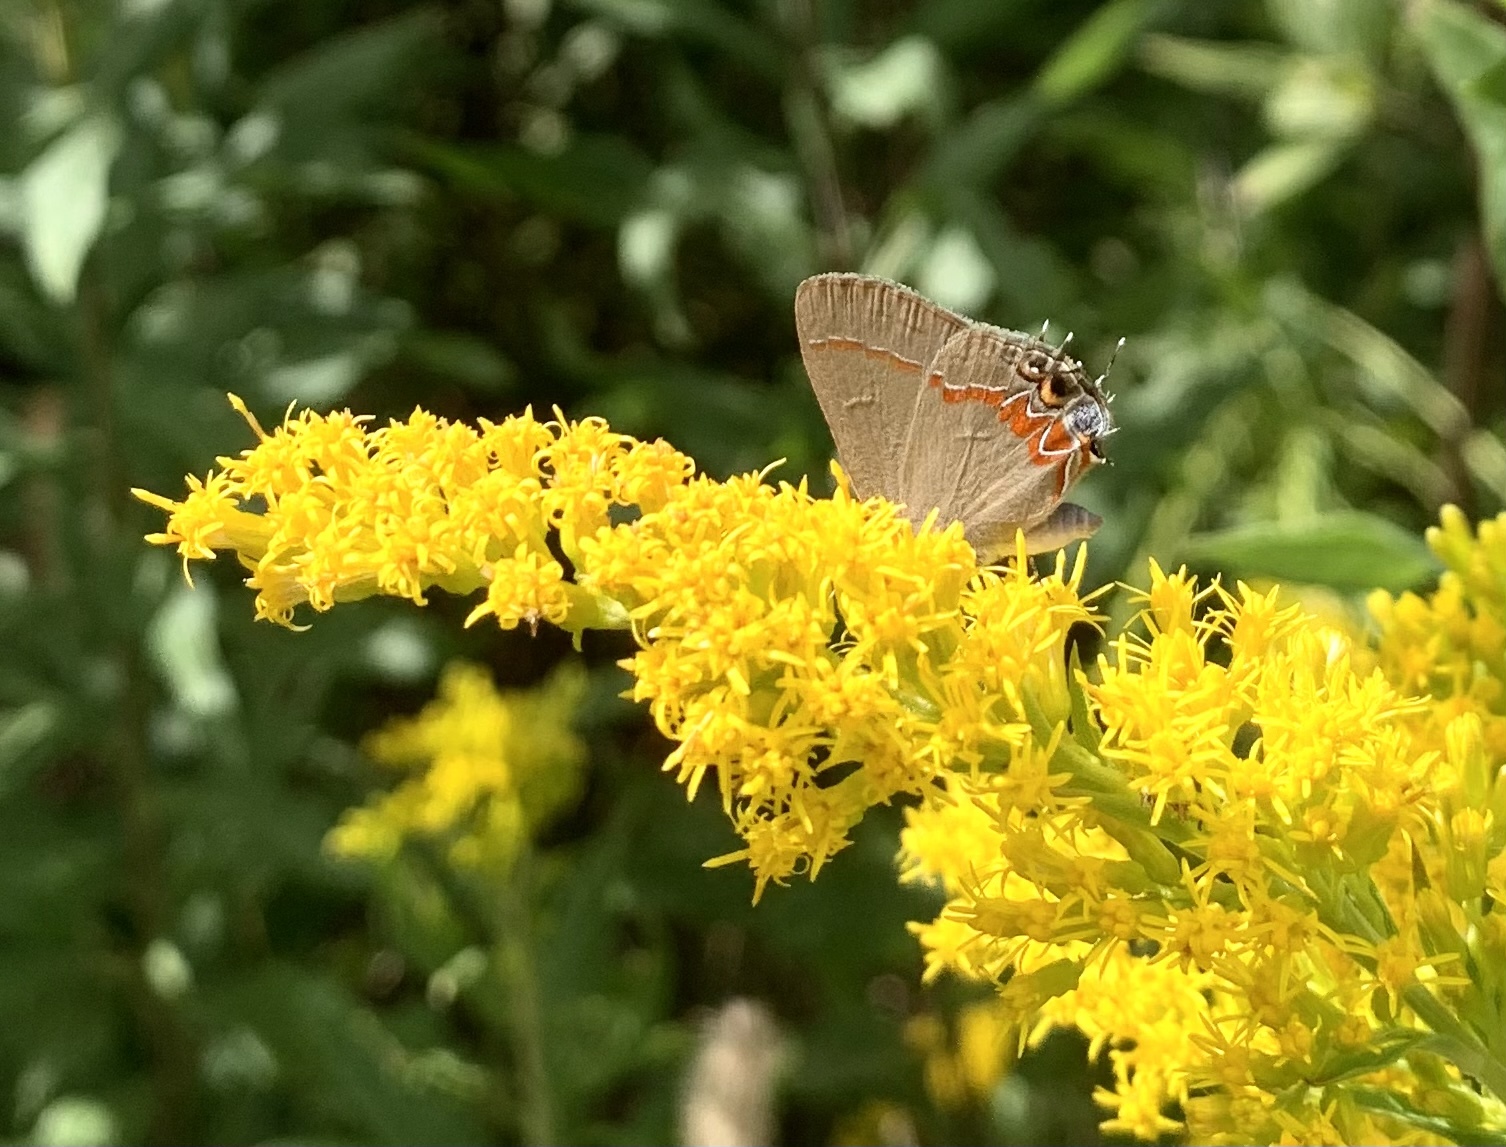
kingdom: Animalia
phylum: Arthropoda
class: Insecta
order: Lepidoptera
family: Lycaenidae
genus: Calycopis
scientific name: Calycopis cecrops
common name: Red-banded hairstreak
